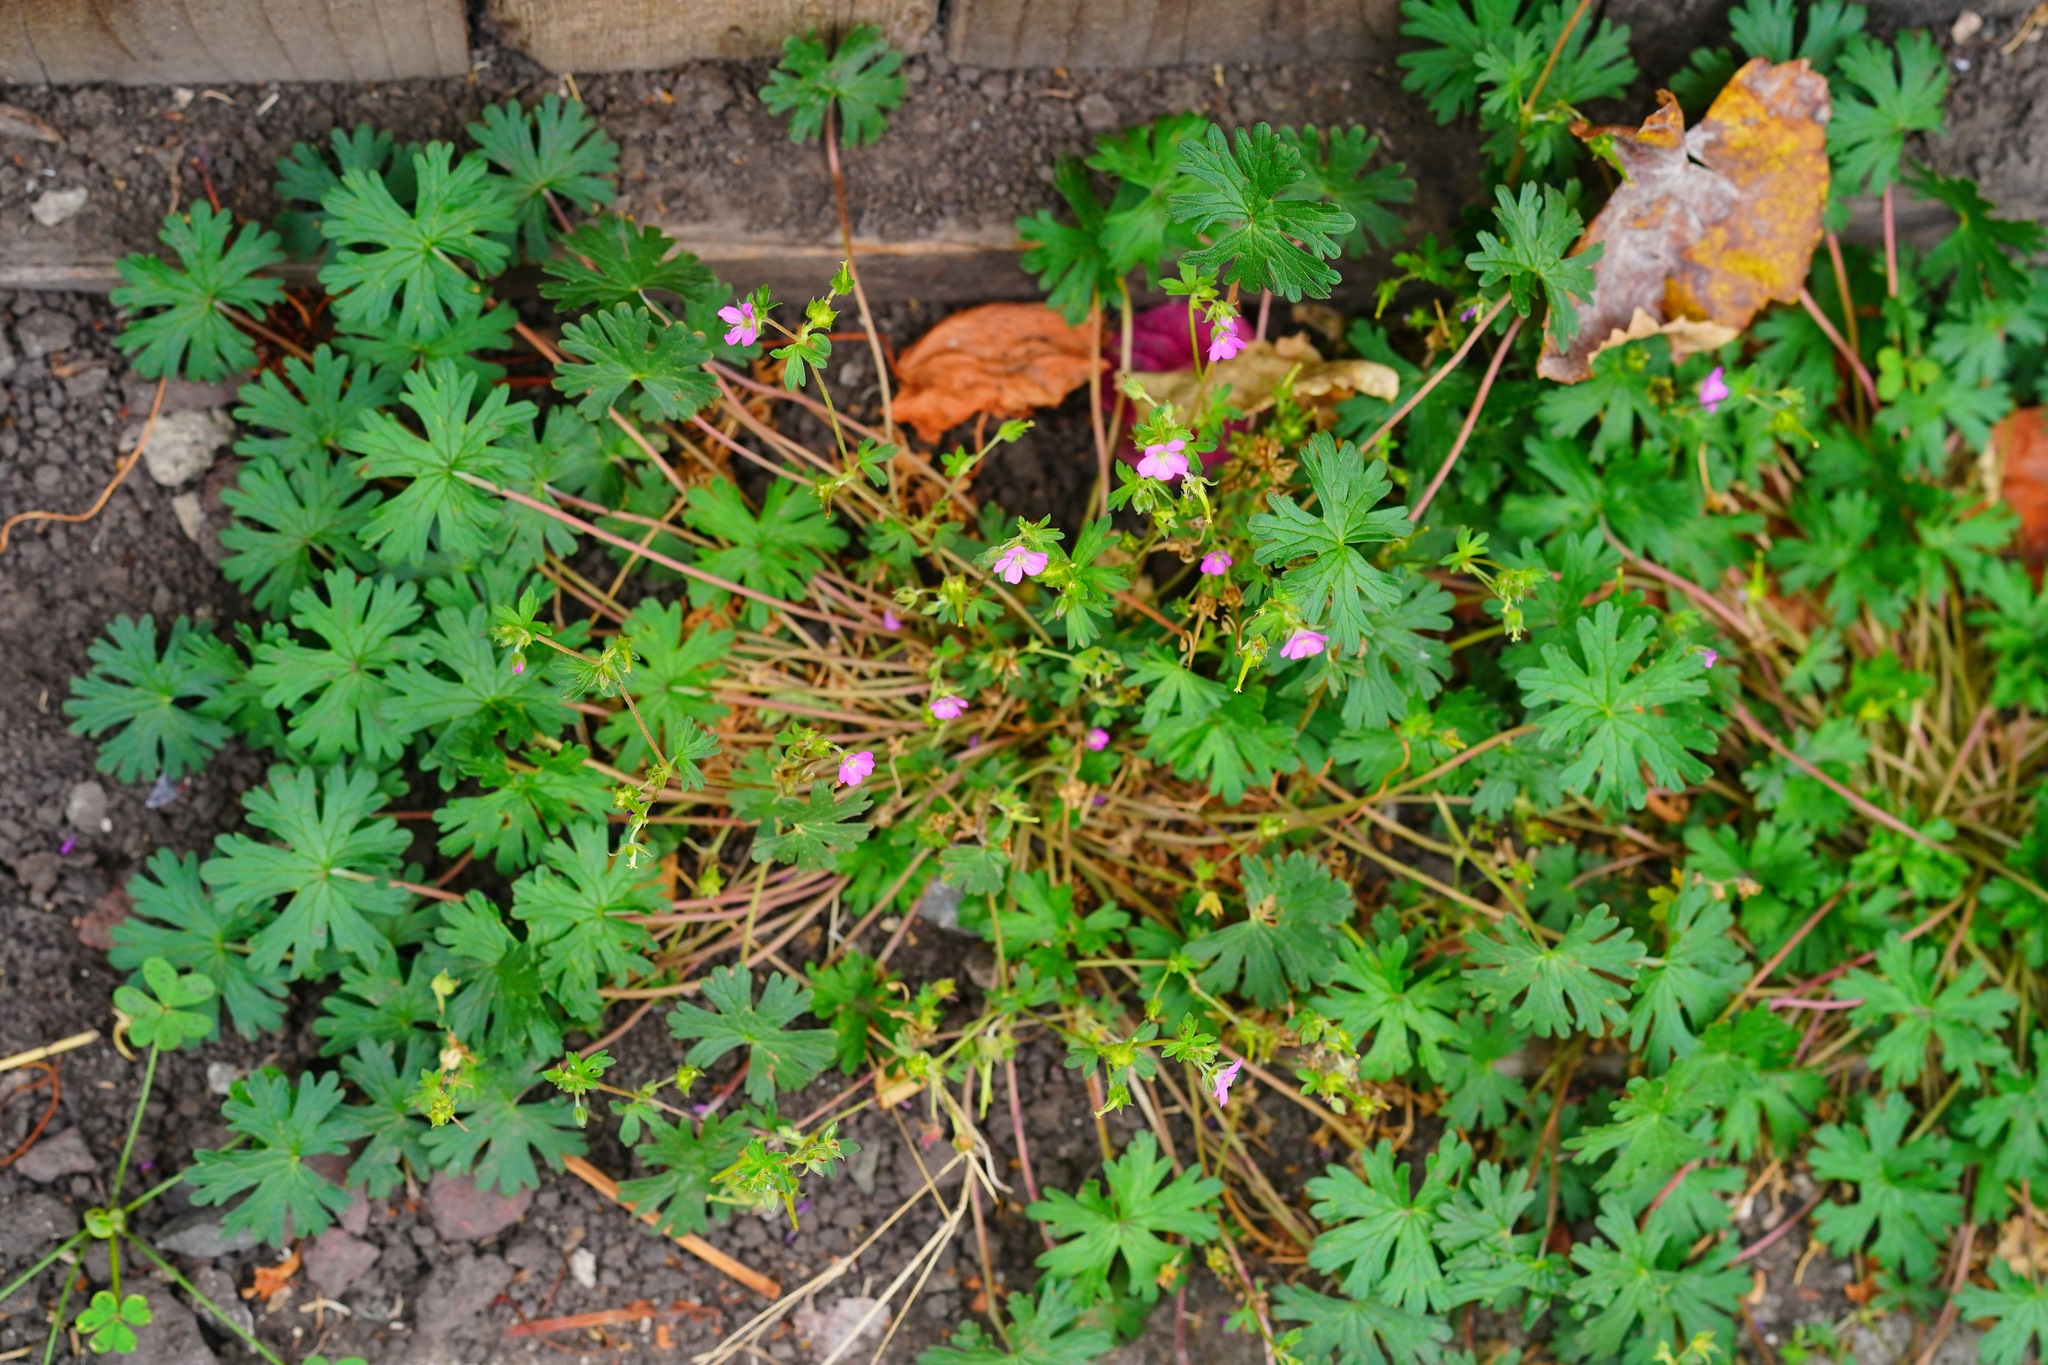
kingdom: Plantae
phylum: Tracheophyta
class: Magnoliopsida
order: Geraniales
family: Geraniaceae
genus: Geranium
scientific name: Geranium core-core
